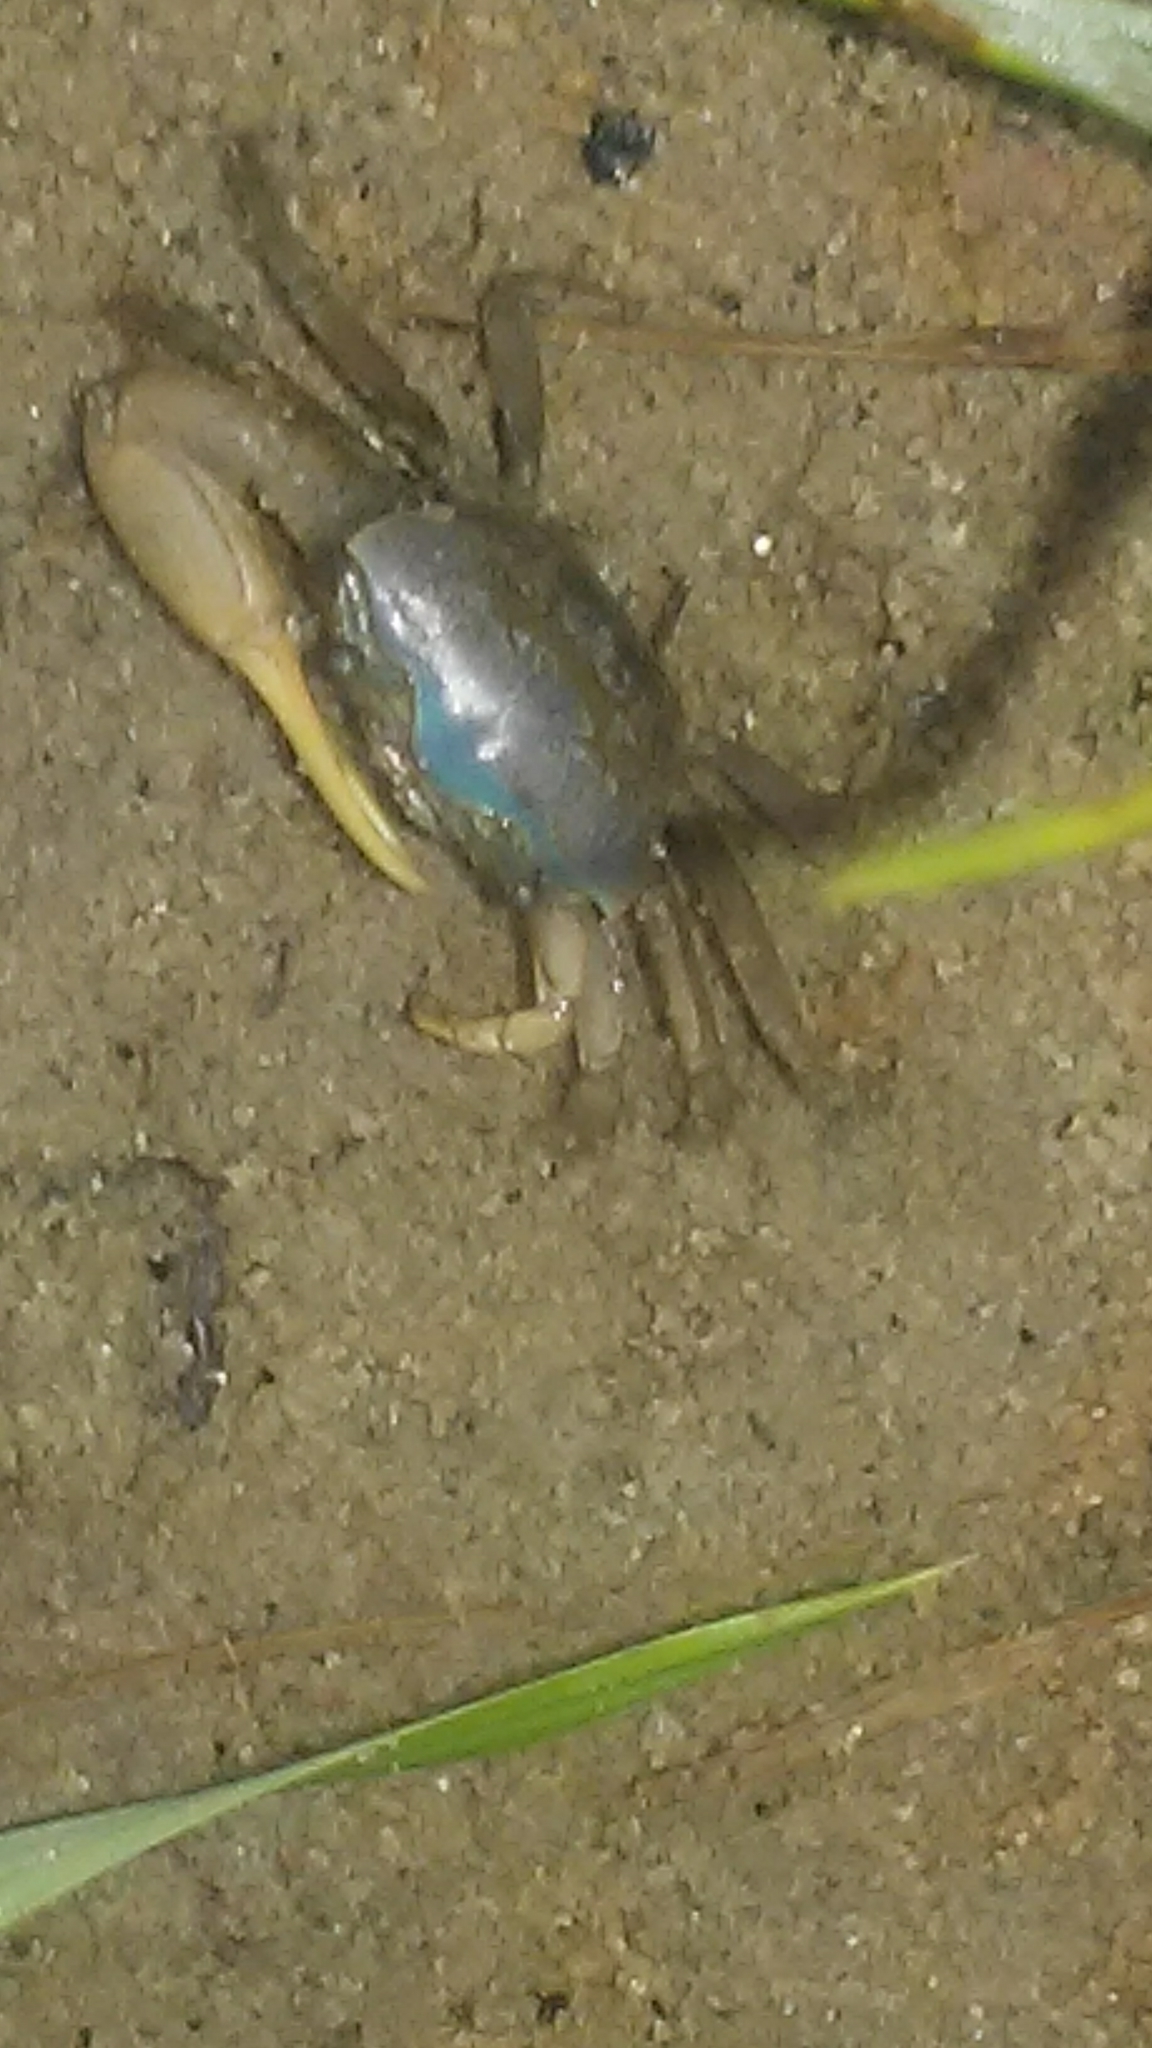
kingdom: Animalia
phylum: Arthropoda
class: Malacostraca
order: Decapoda
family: Ocypodidae
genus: Minuca
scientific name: Minuca pugnax
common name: Mud fiddler crab
